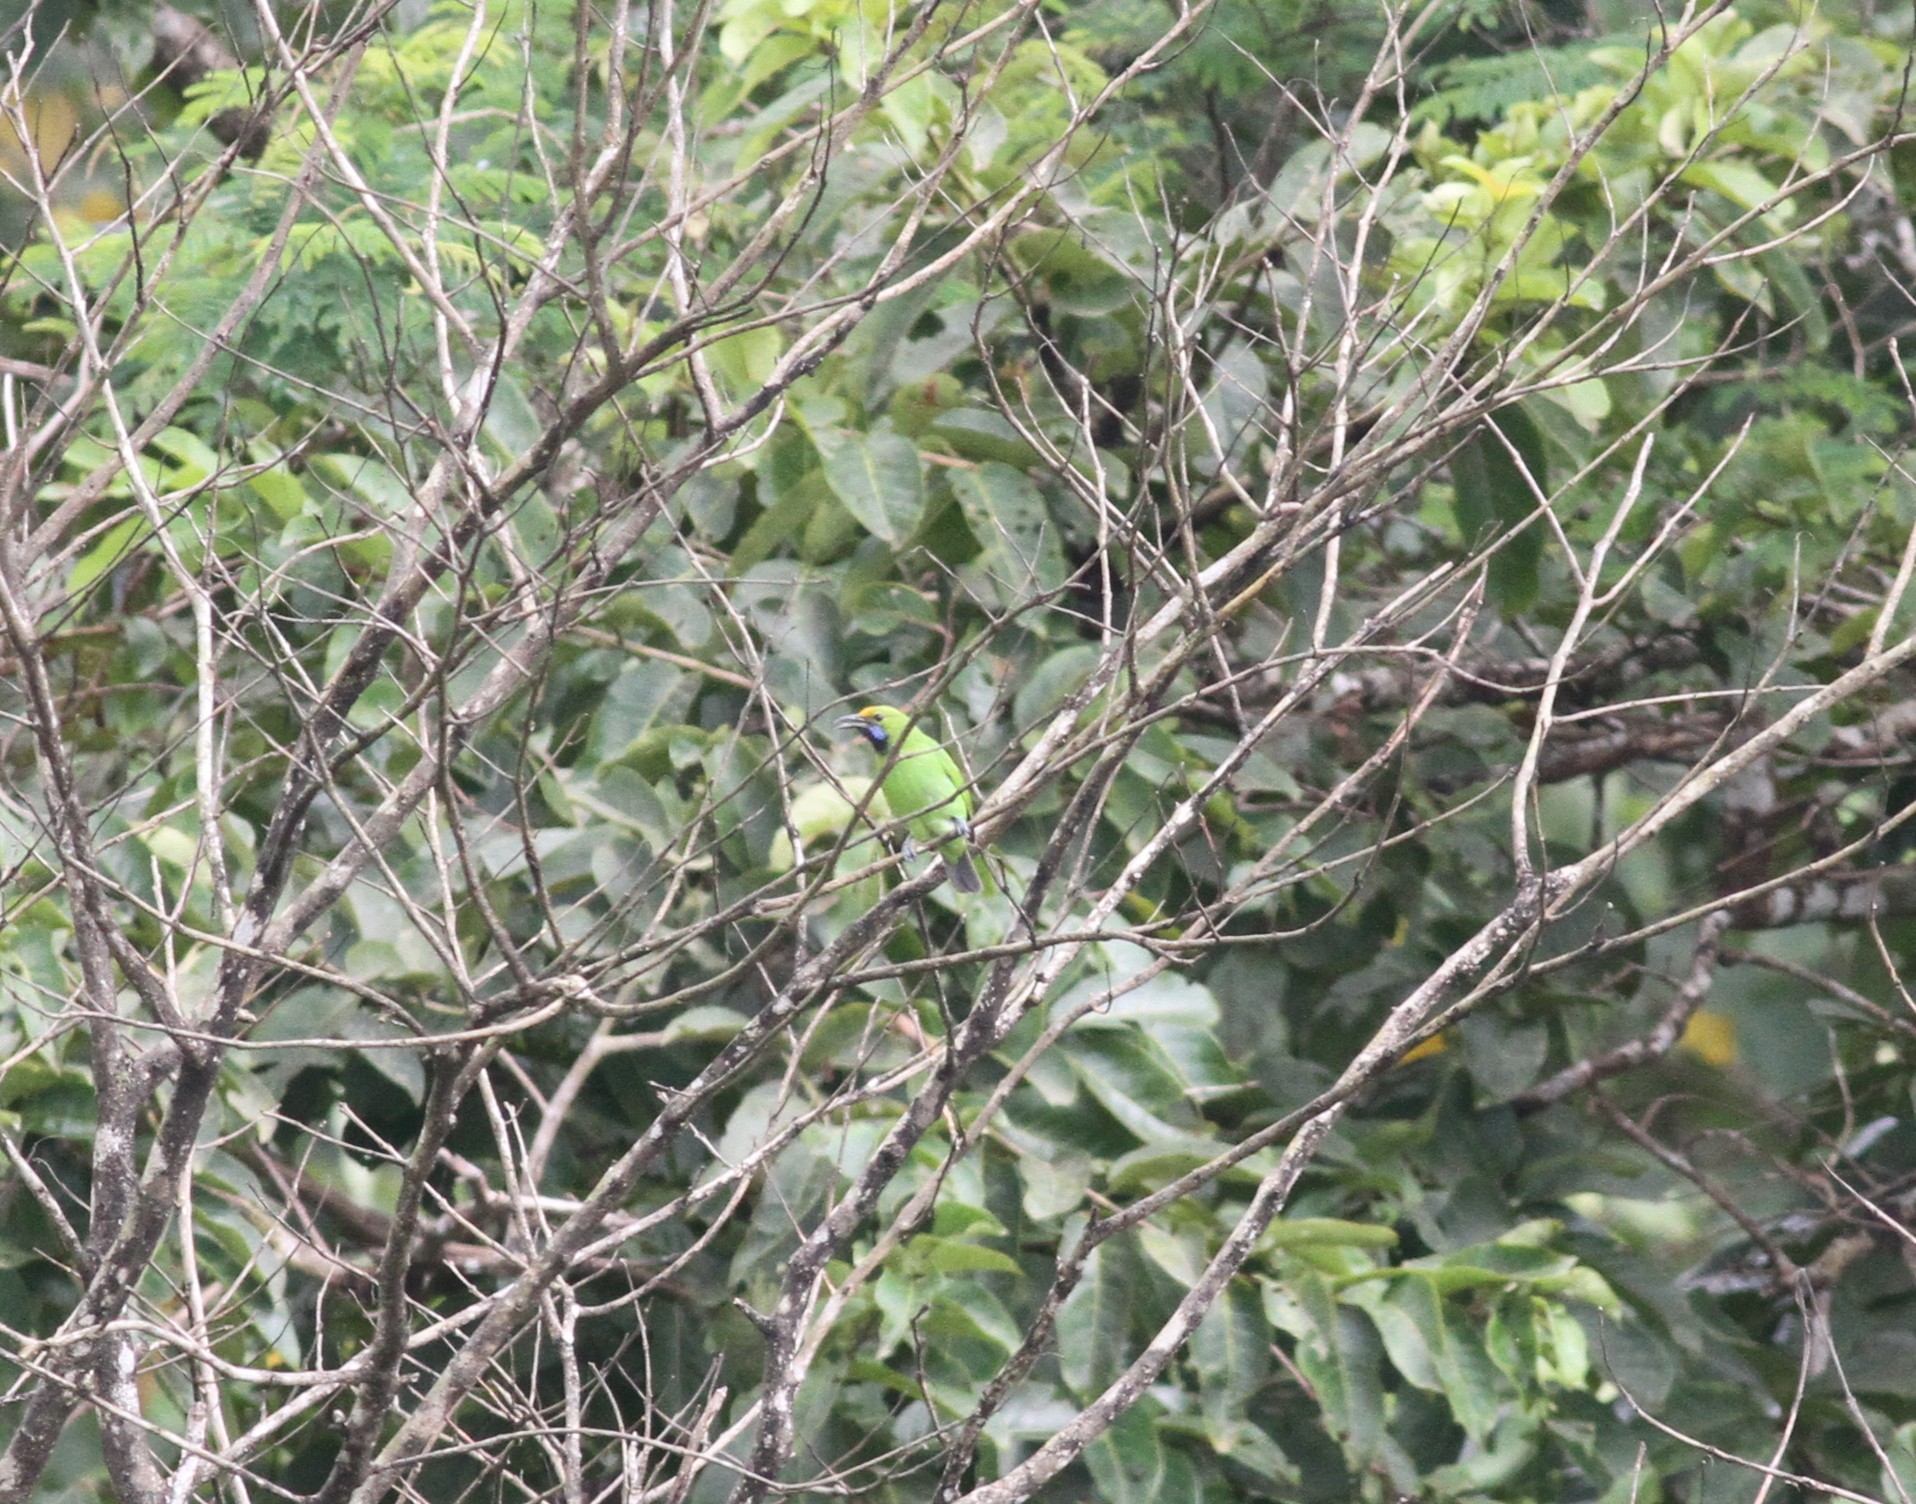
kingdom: Animalia
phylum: Chordata
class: Aves
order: Passeriformes
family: Chloropseidae
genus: Chloropsis
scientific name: Chloropsis aurifrons
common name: Golden-fronted leafbird
